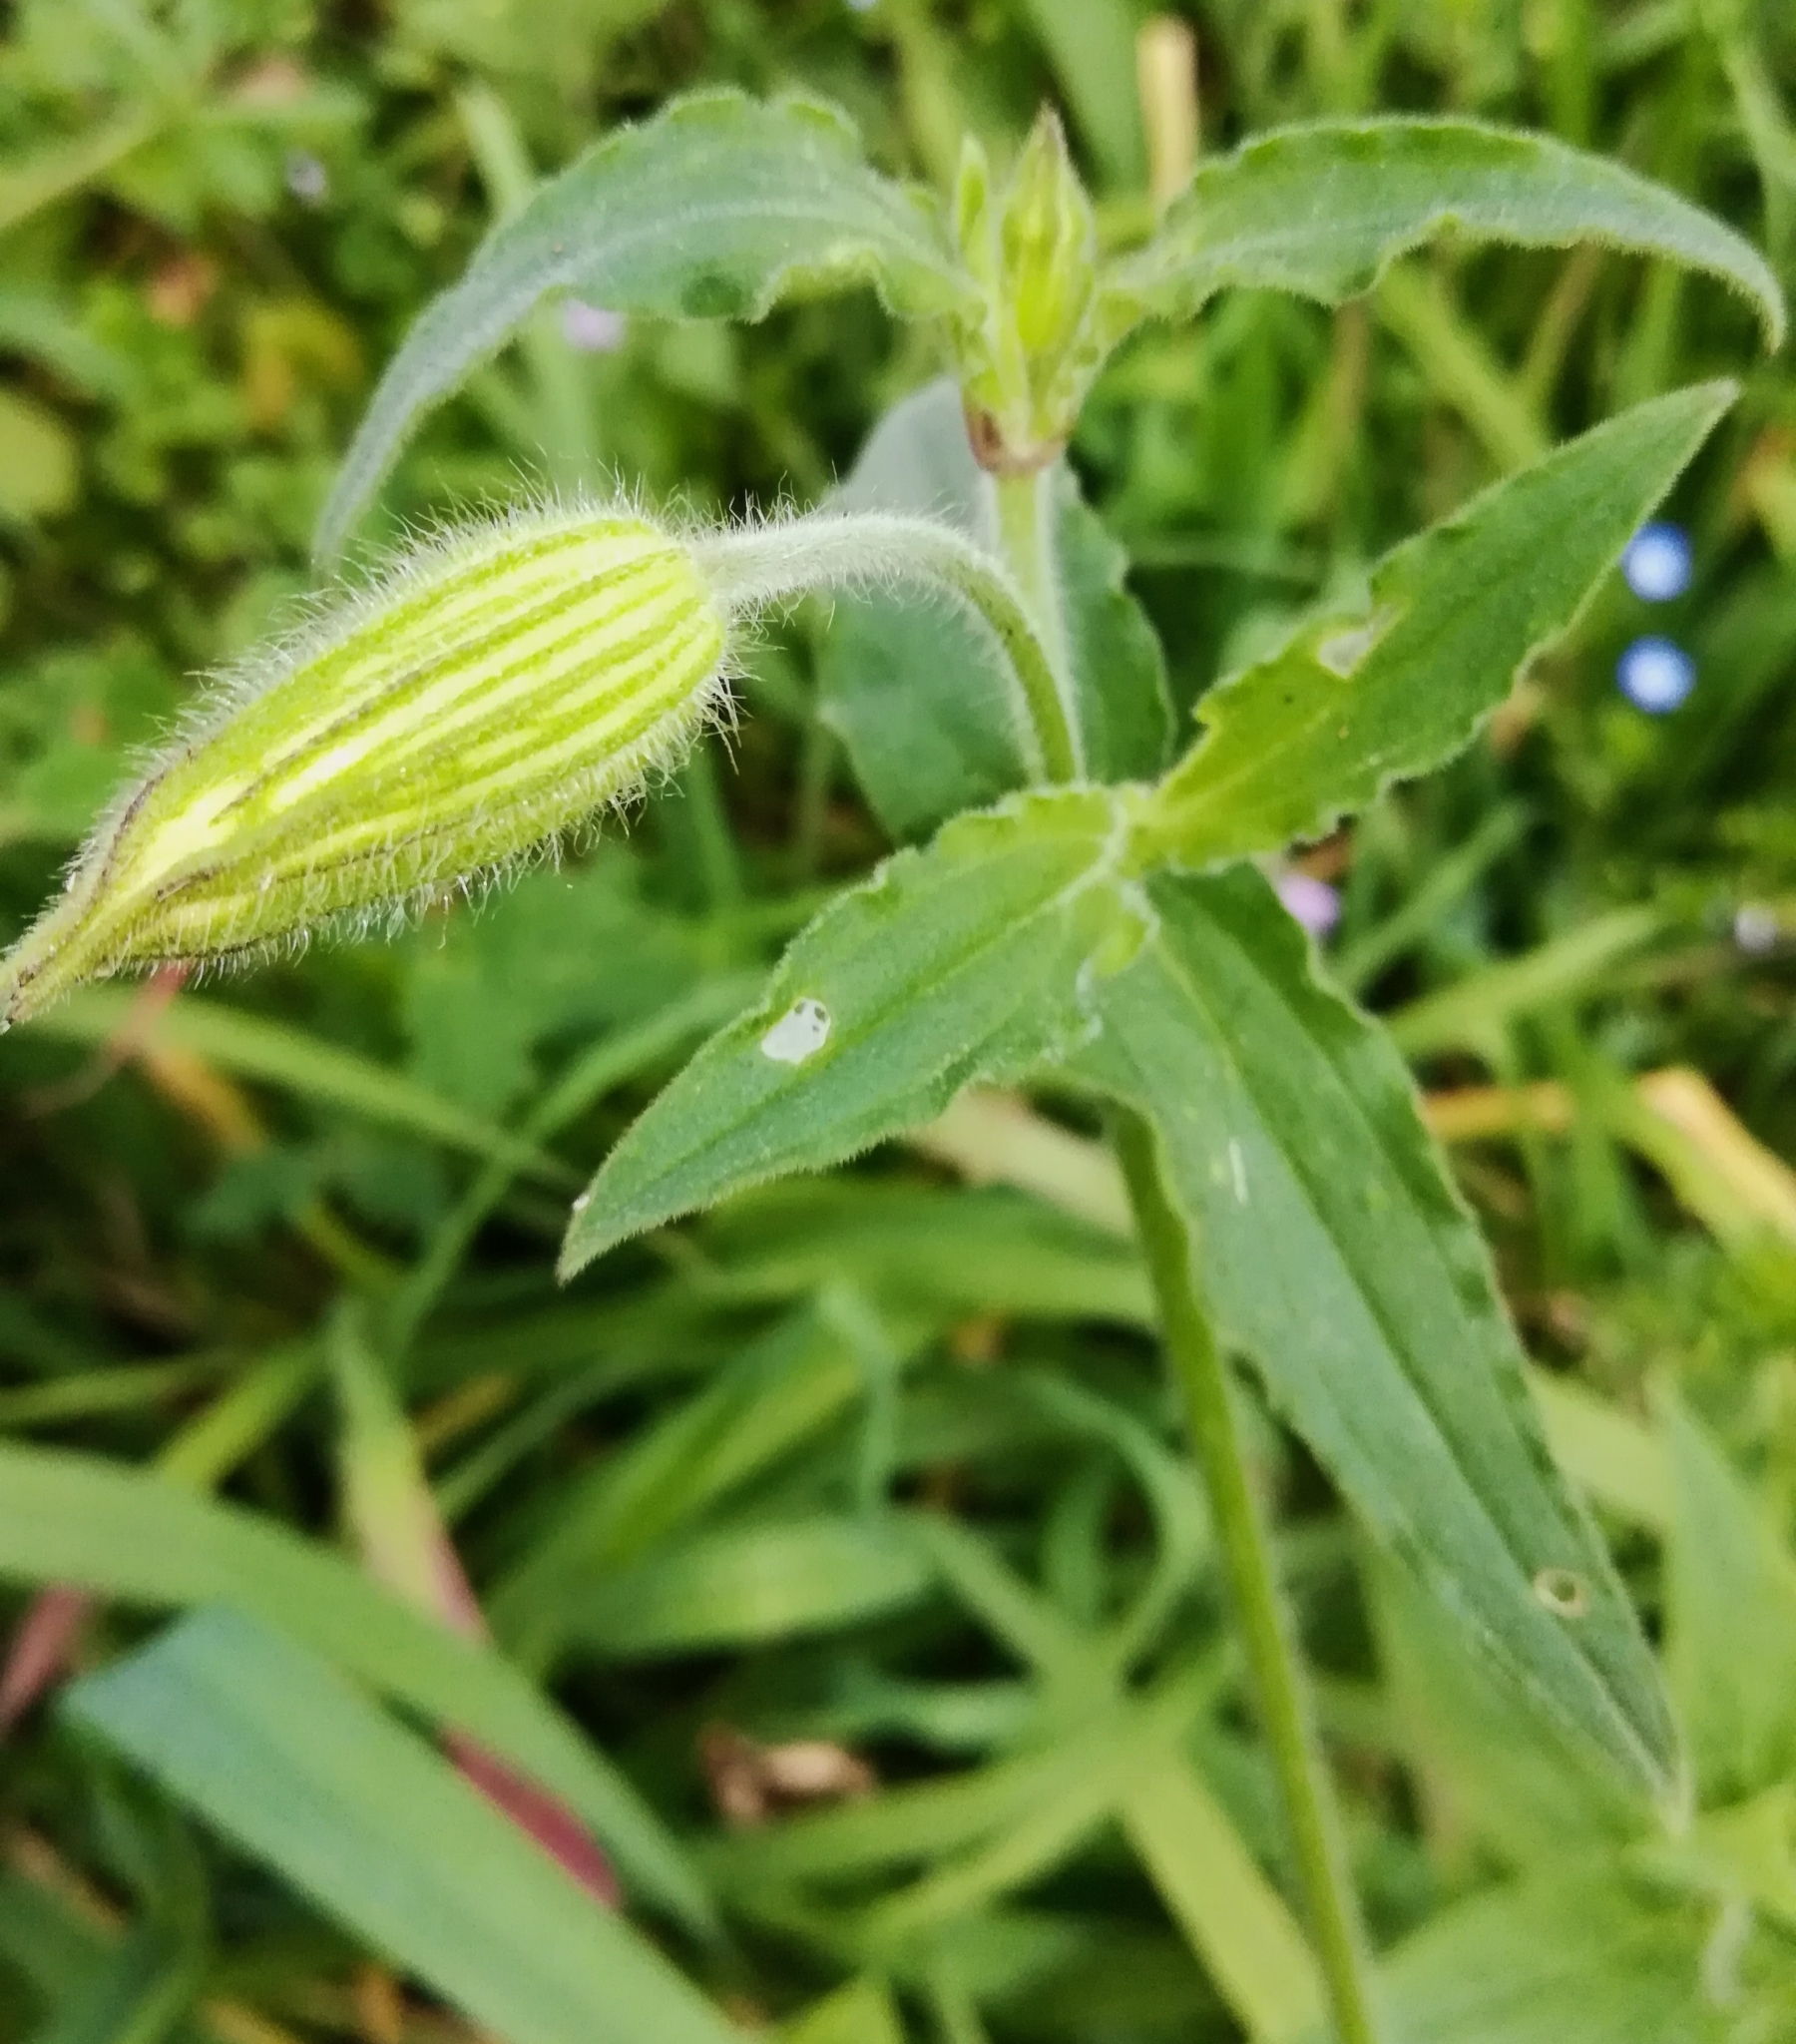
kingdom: Plantae
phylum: Tracheophyta
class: Magnoliopsida
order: Caryophyllales
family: Caryophyllaceae
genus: Silene
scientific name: Silene latifolia
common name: White campion
